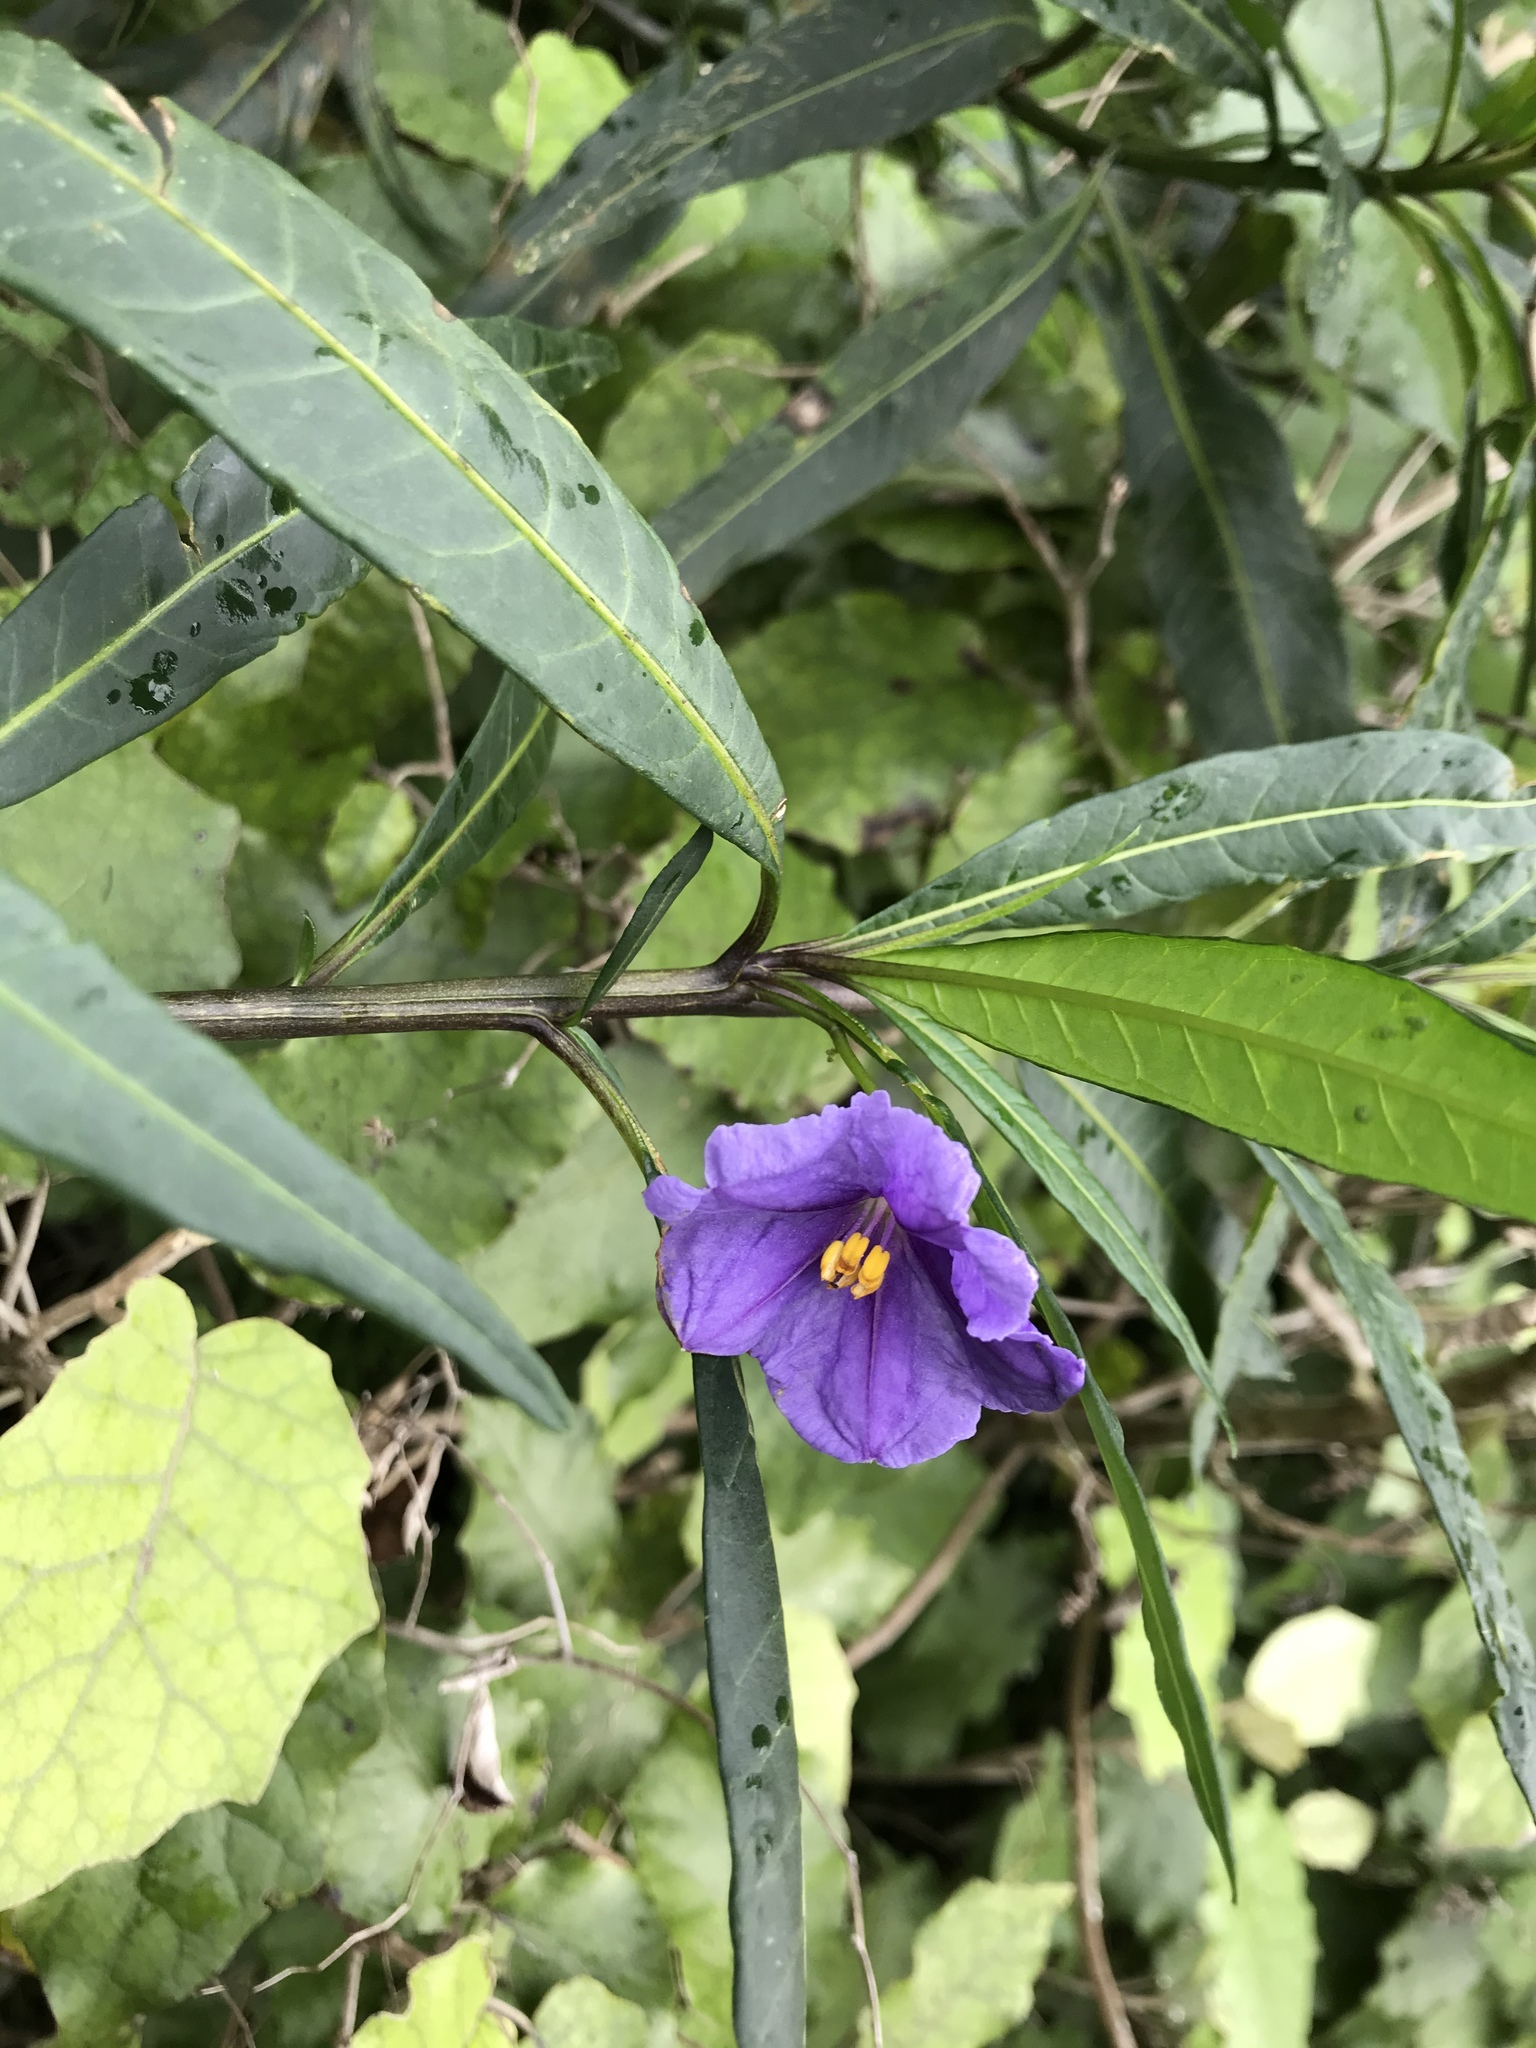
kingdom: Plantae
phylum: Tracheophyta
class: Magnoliopsida
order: Solanales
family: Solanaceae
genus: Solanum
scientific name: Solanum laciniatum
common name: Kangaroo-apple
